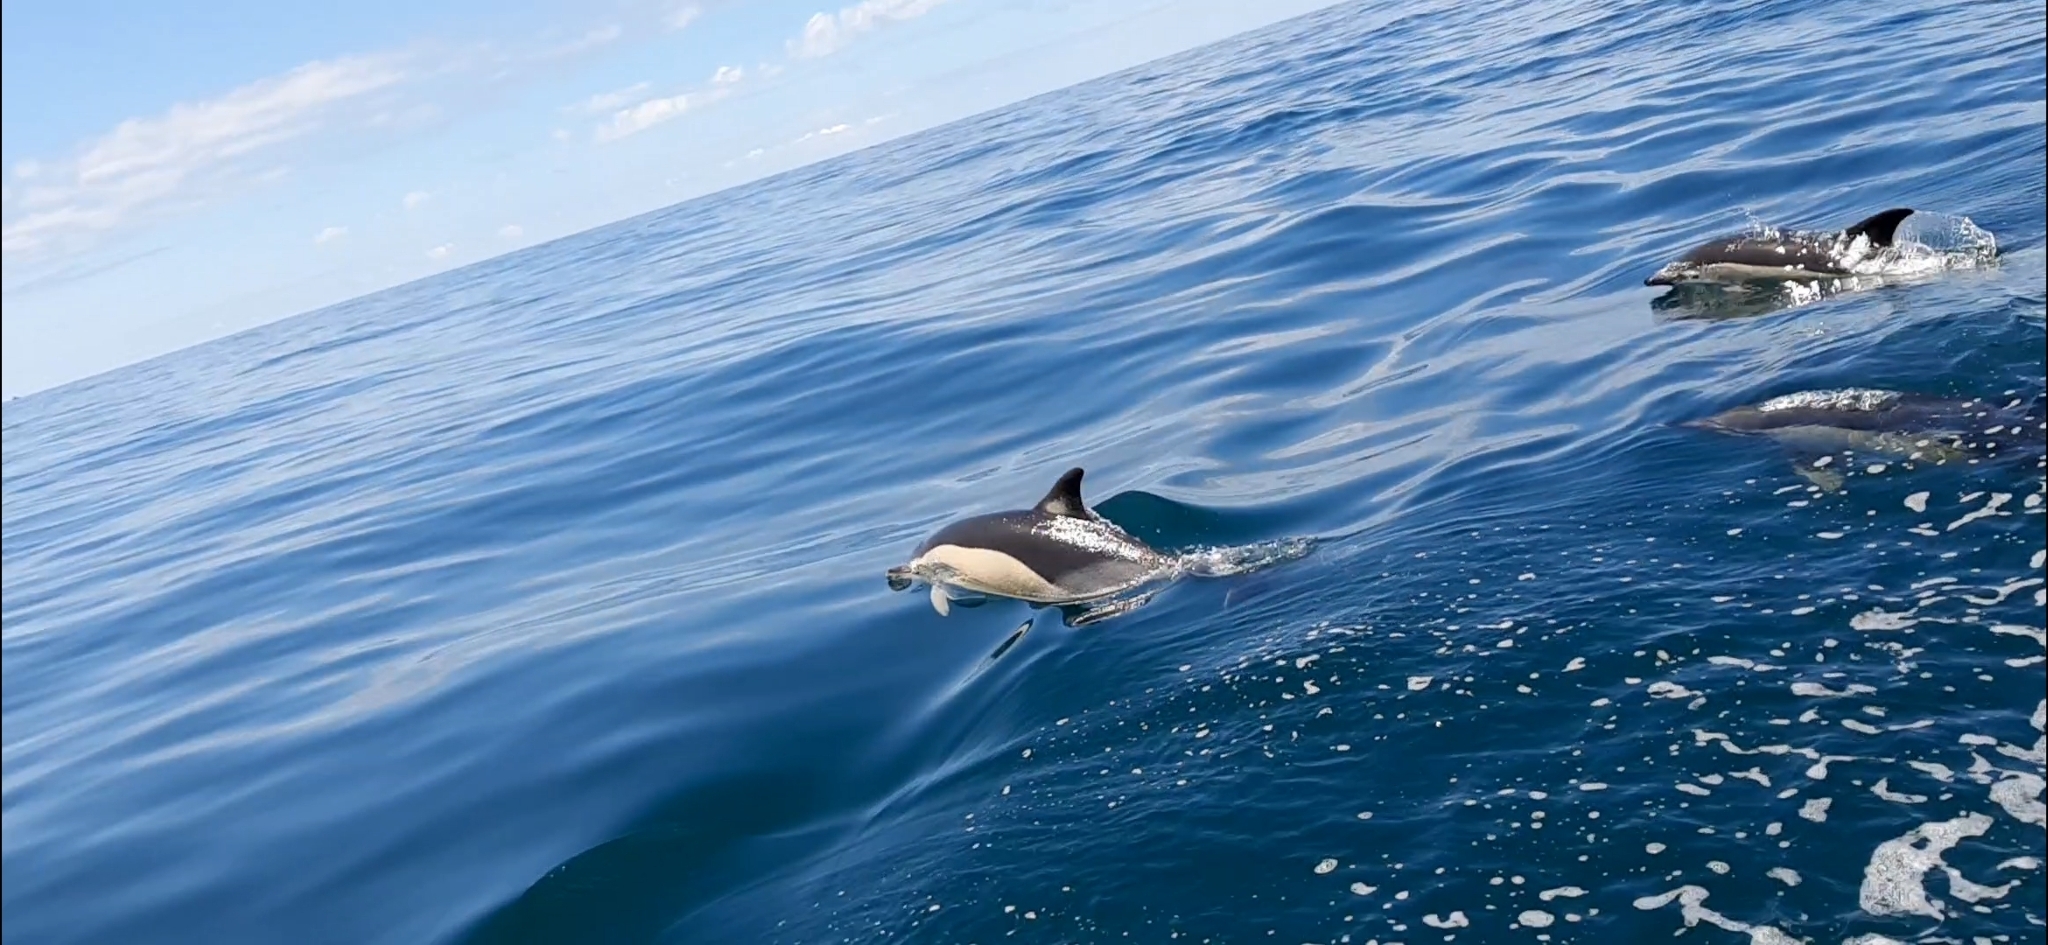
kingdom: Animalia
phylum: Chordata
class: Mammalia
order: Cetacea
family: Delphinidae
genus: Delphinus
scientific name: Delphinus delphis
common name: Common dolphin
